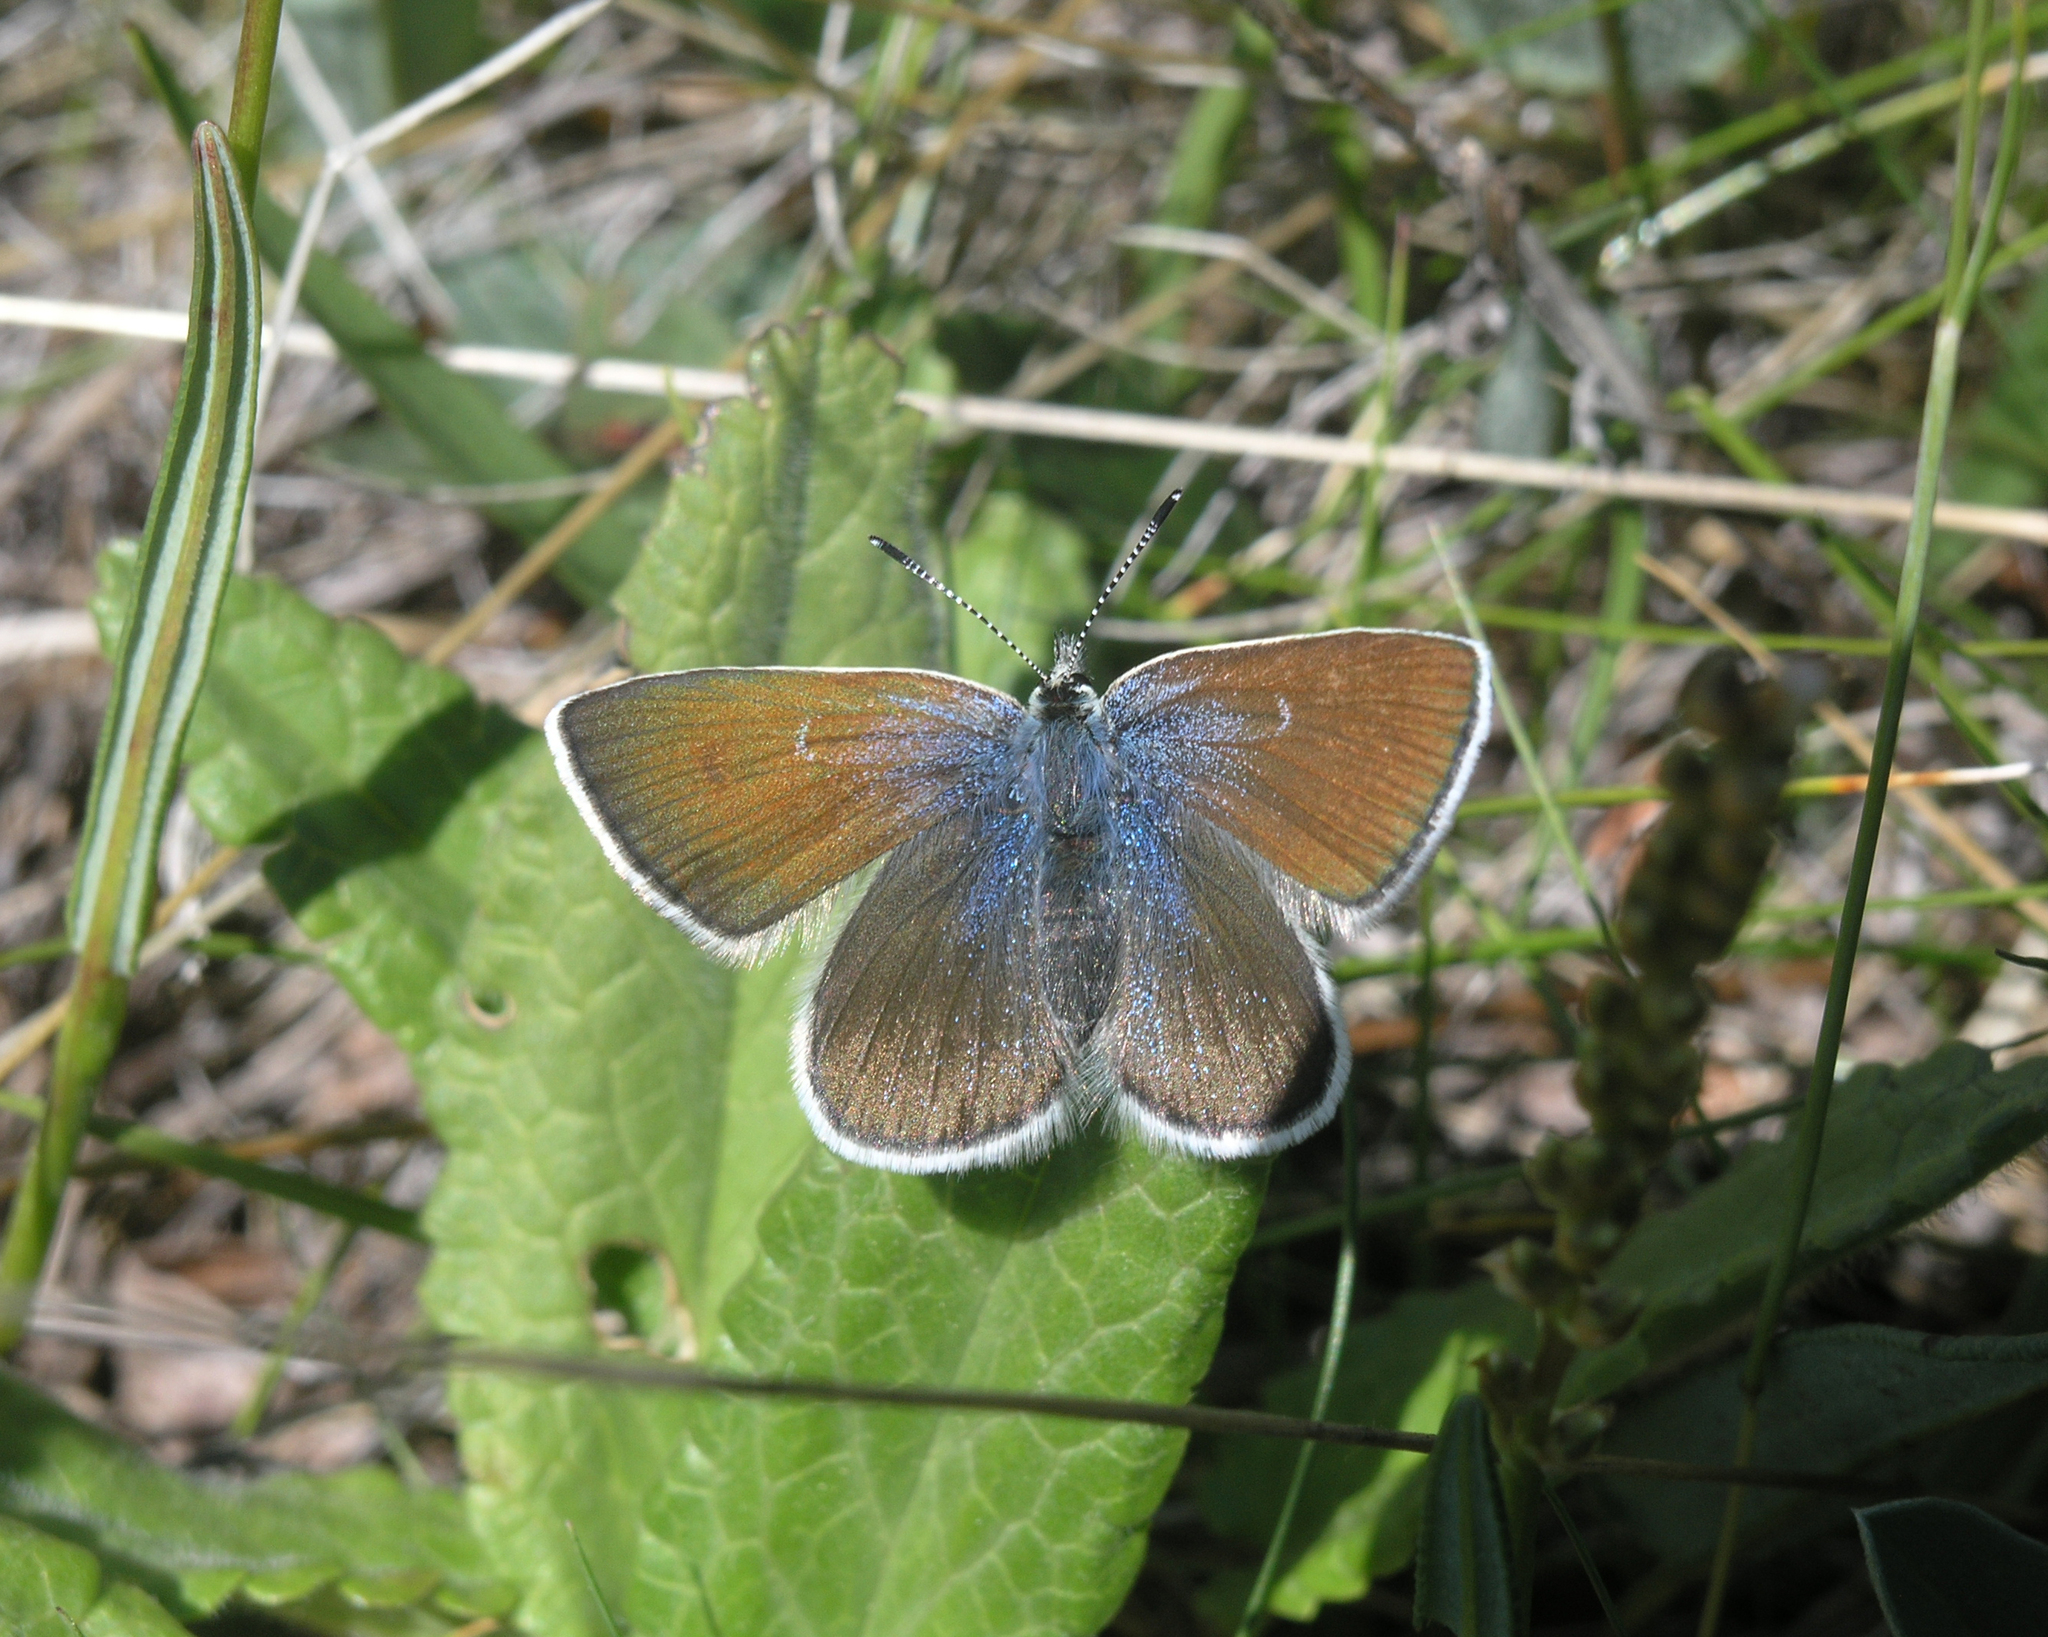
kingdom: Animalia
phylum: Arthropoda
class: Insecta
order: Lepidoptera
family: Lycaenidae
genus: Albulina
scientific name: Albulina orbitulus
